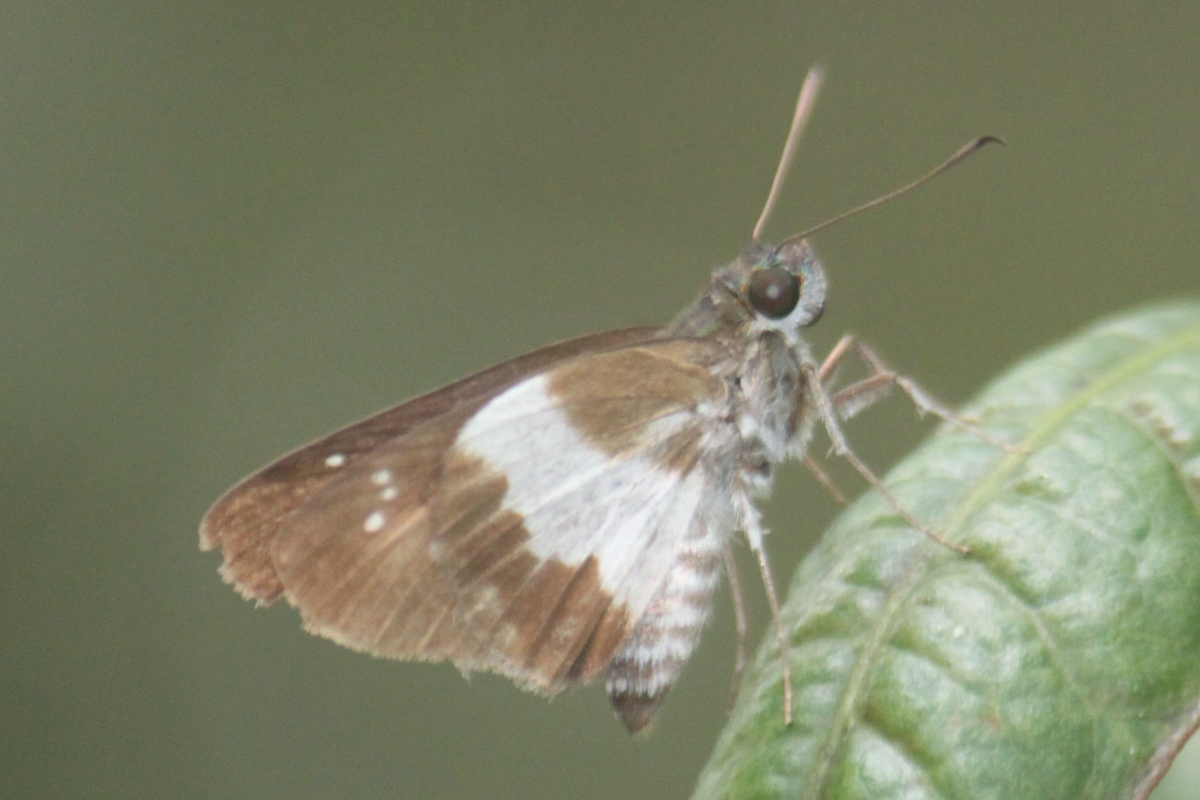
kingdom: Animalia
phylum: Arthropoda
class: Insecta
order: Lepidoptera
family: Hesperiidae
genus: Acerbas
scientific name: Acerbas anthea
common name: White palmer
